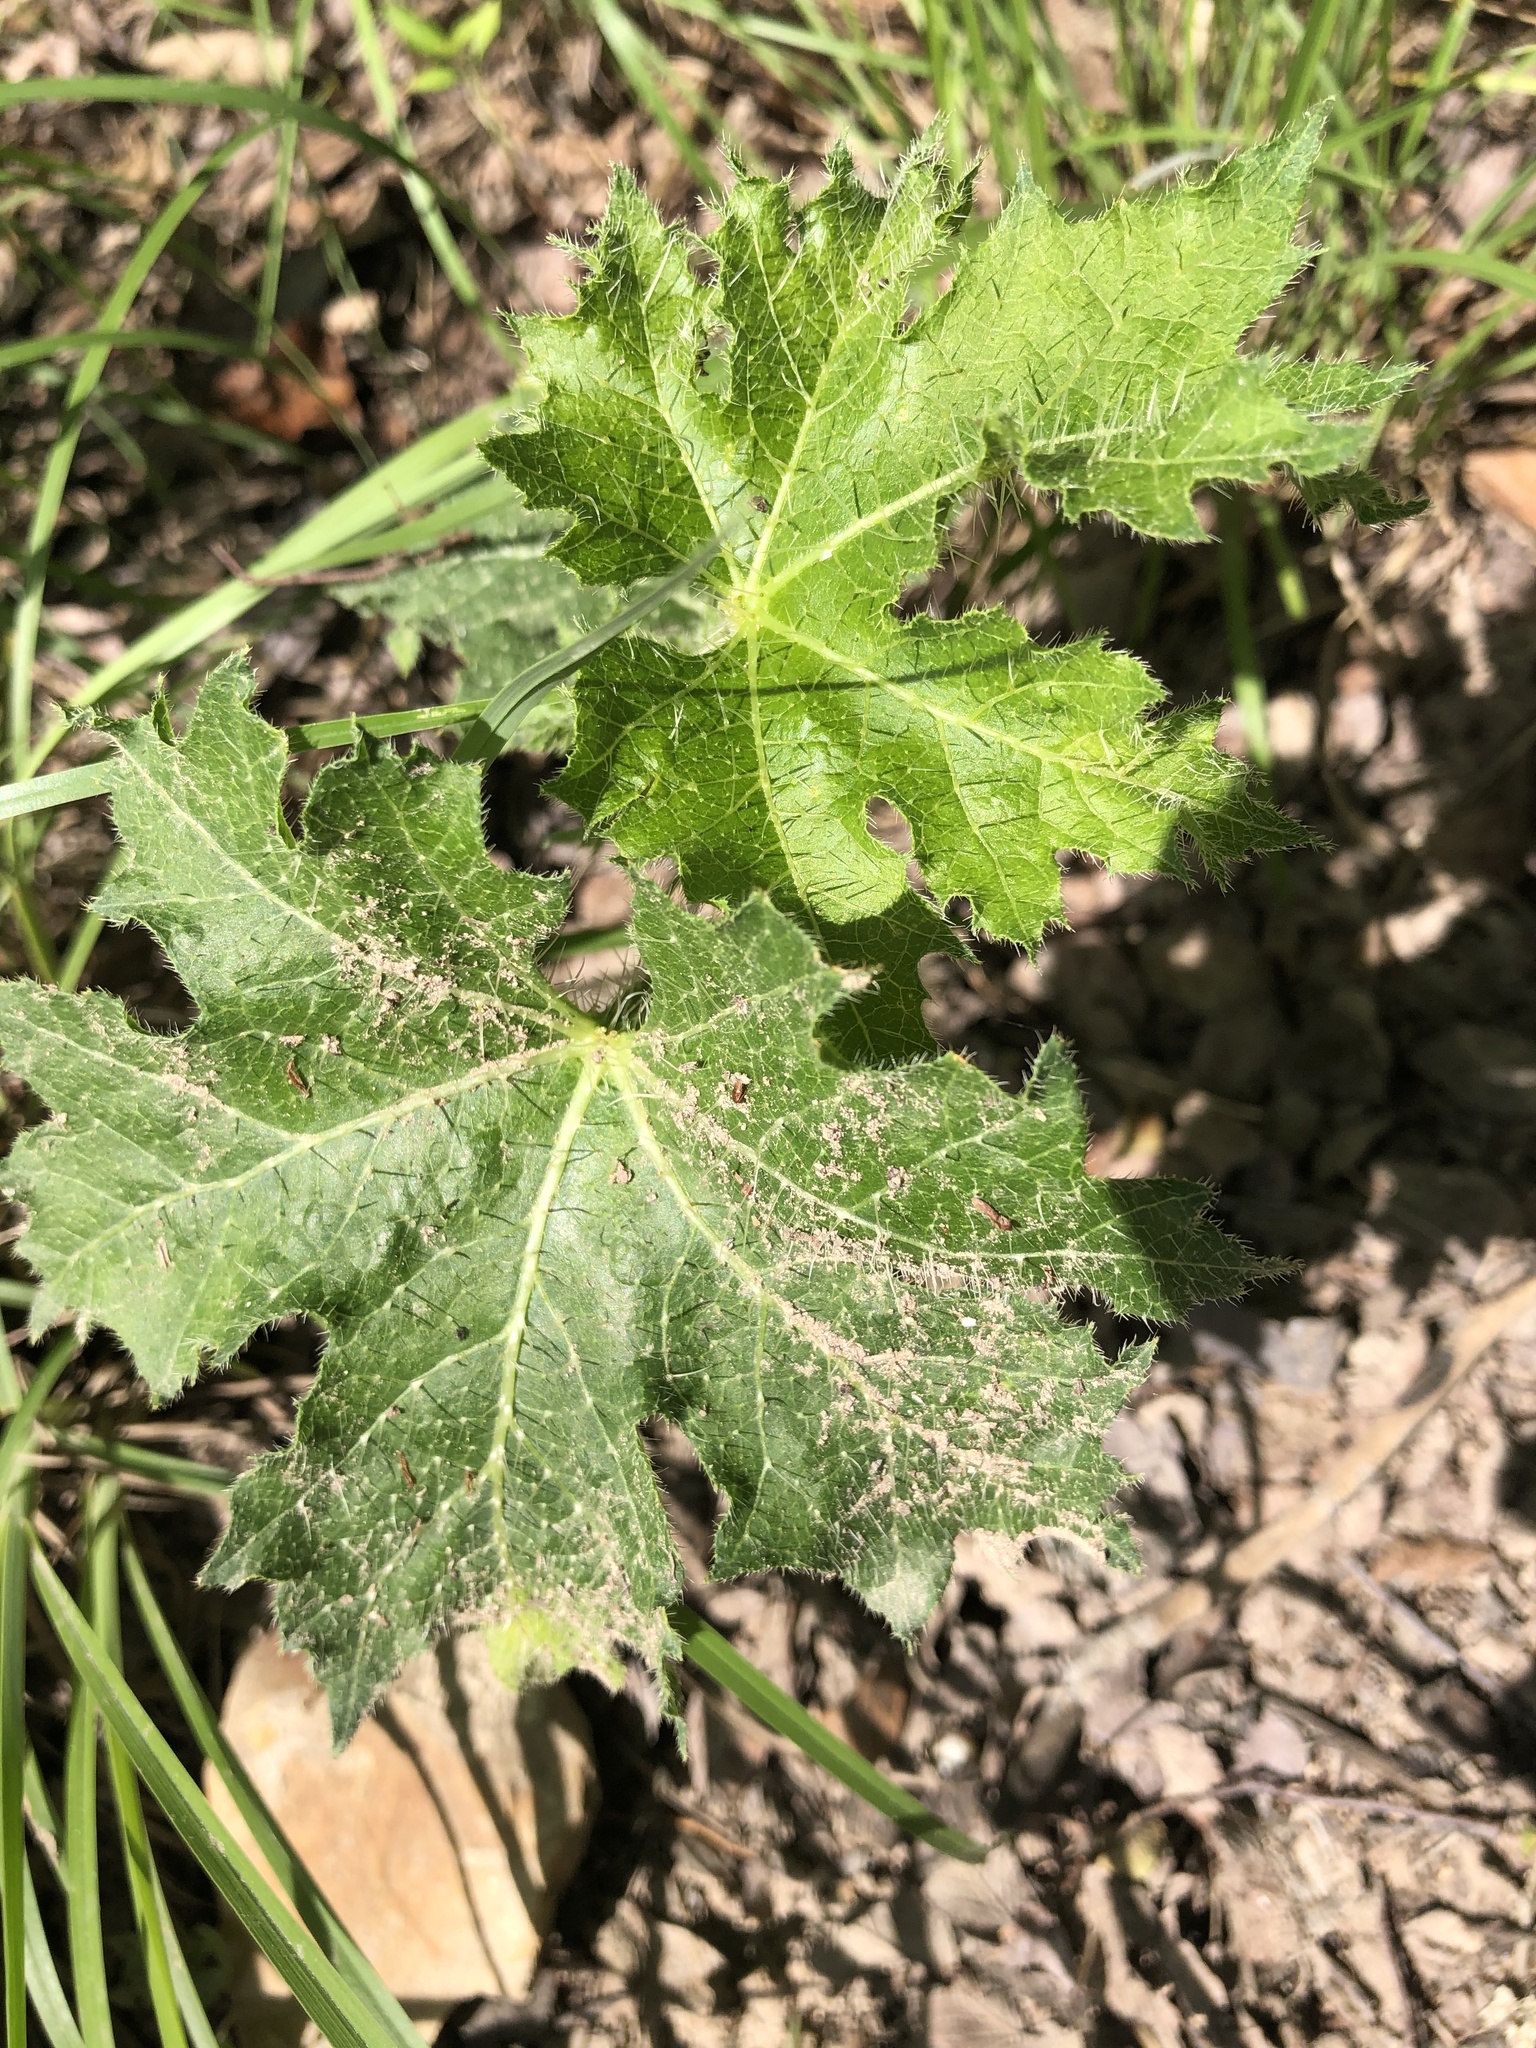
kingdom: Plantae
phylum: Tracheophyta
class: Magnoliopsida
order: Malpighiales
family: Euphorbiaceae
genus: Cnidoscolus
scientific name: Cnidoscolus texanus
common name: Texas bull-nettle
